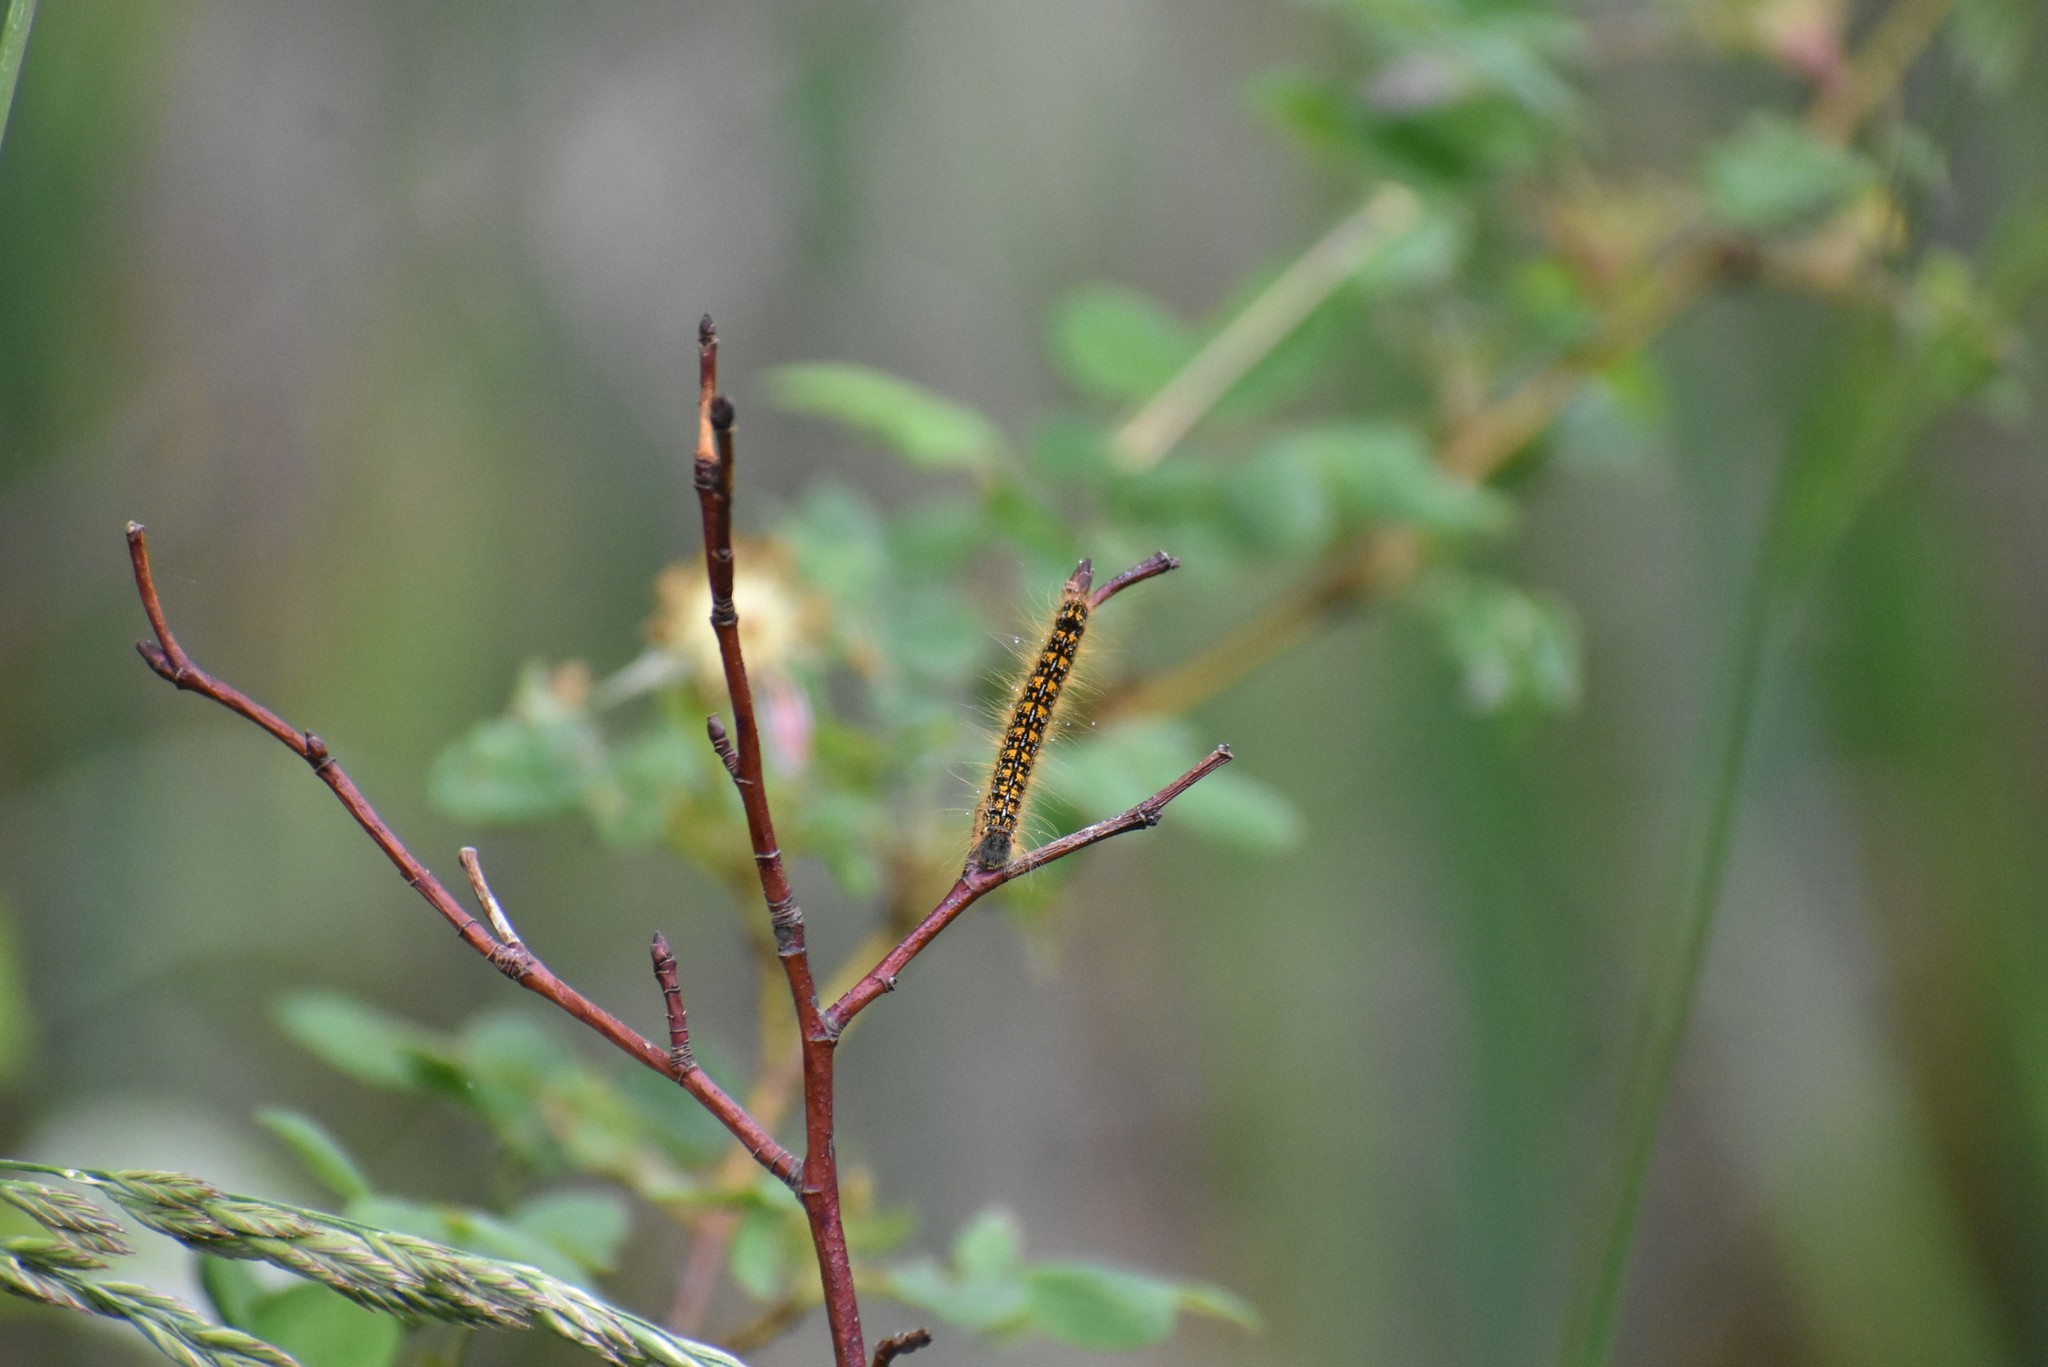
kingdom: Animalia
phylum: Arthropoda
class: Insecta
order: Lepidoptera
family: Lasiocampidae
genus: Malacosoma
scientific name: Malacosoma californica
